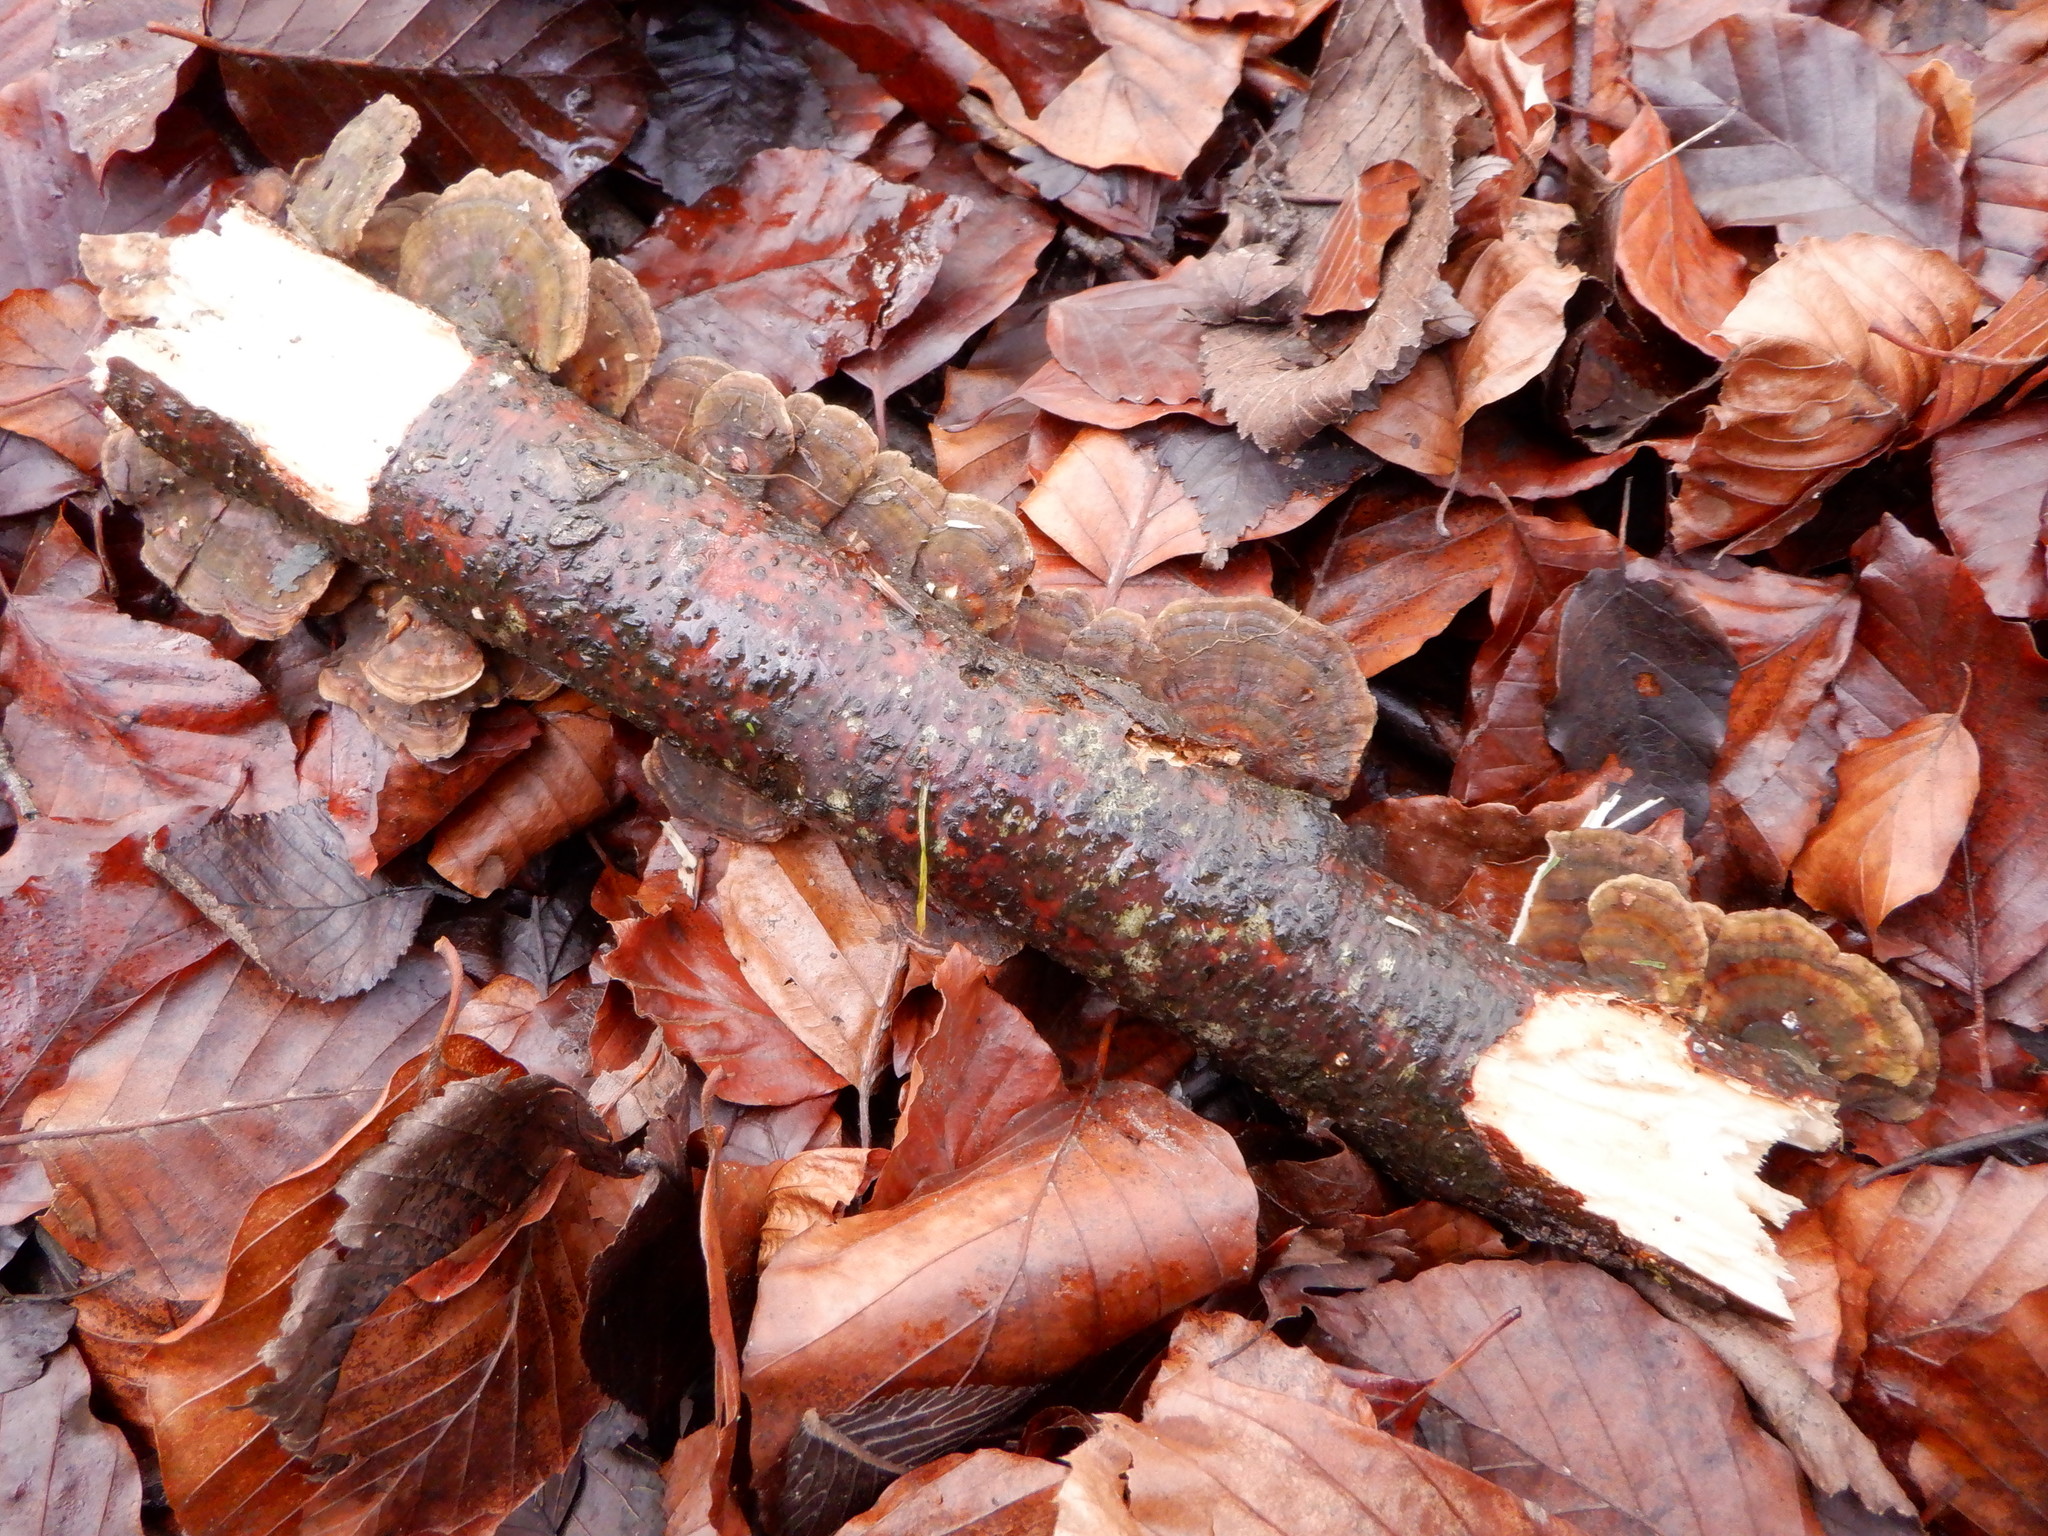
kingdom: Fungi
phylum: Basidiomycota
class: Agaricomycetes
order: Polyporales
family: Polyporaceae
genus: Trametes
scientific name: Trametes versicolor
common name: Turkeytail
